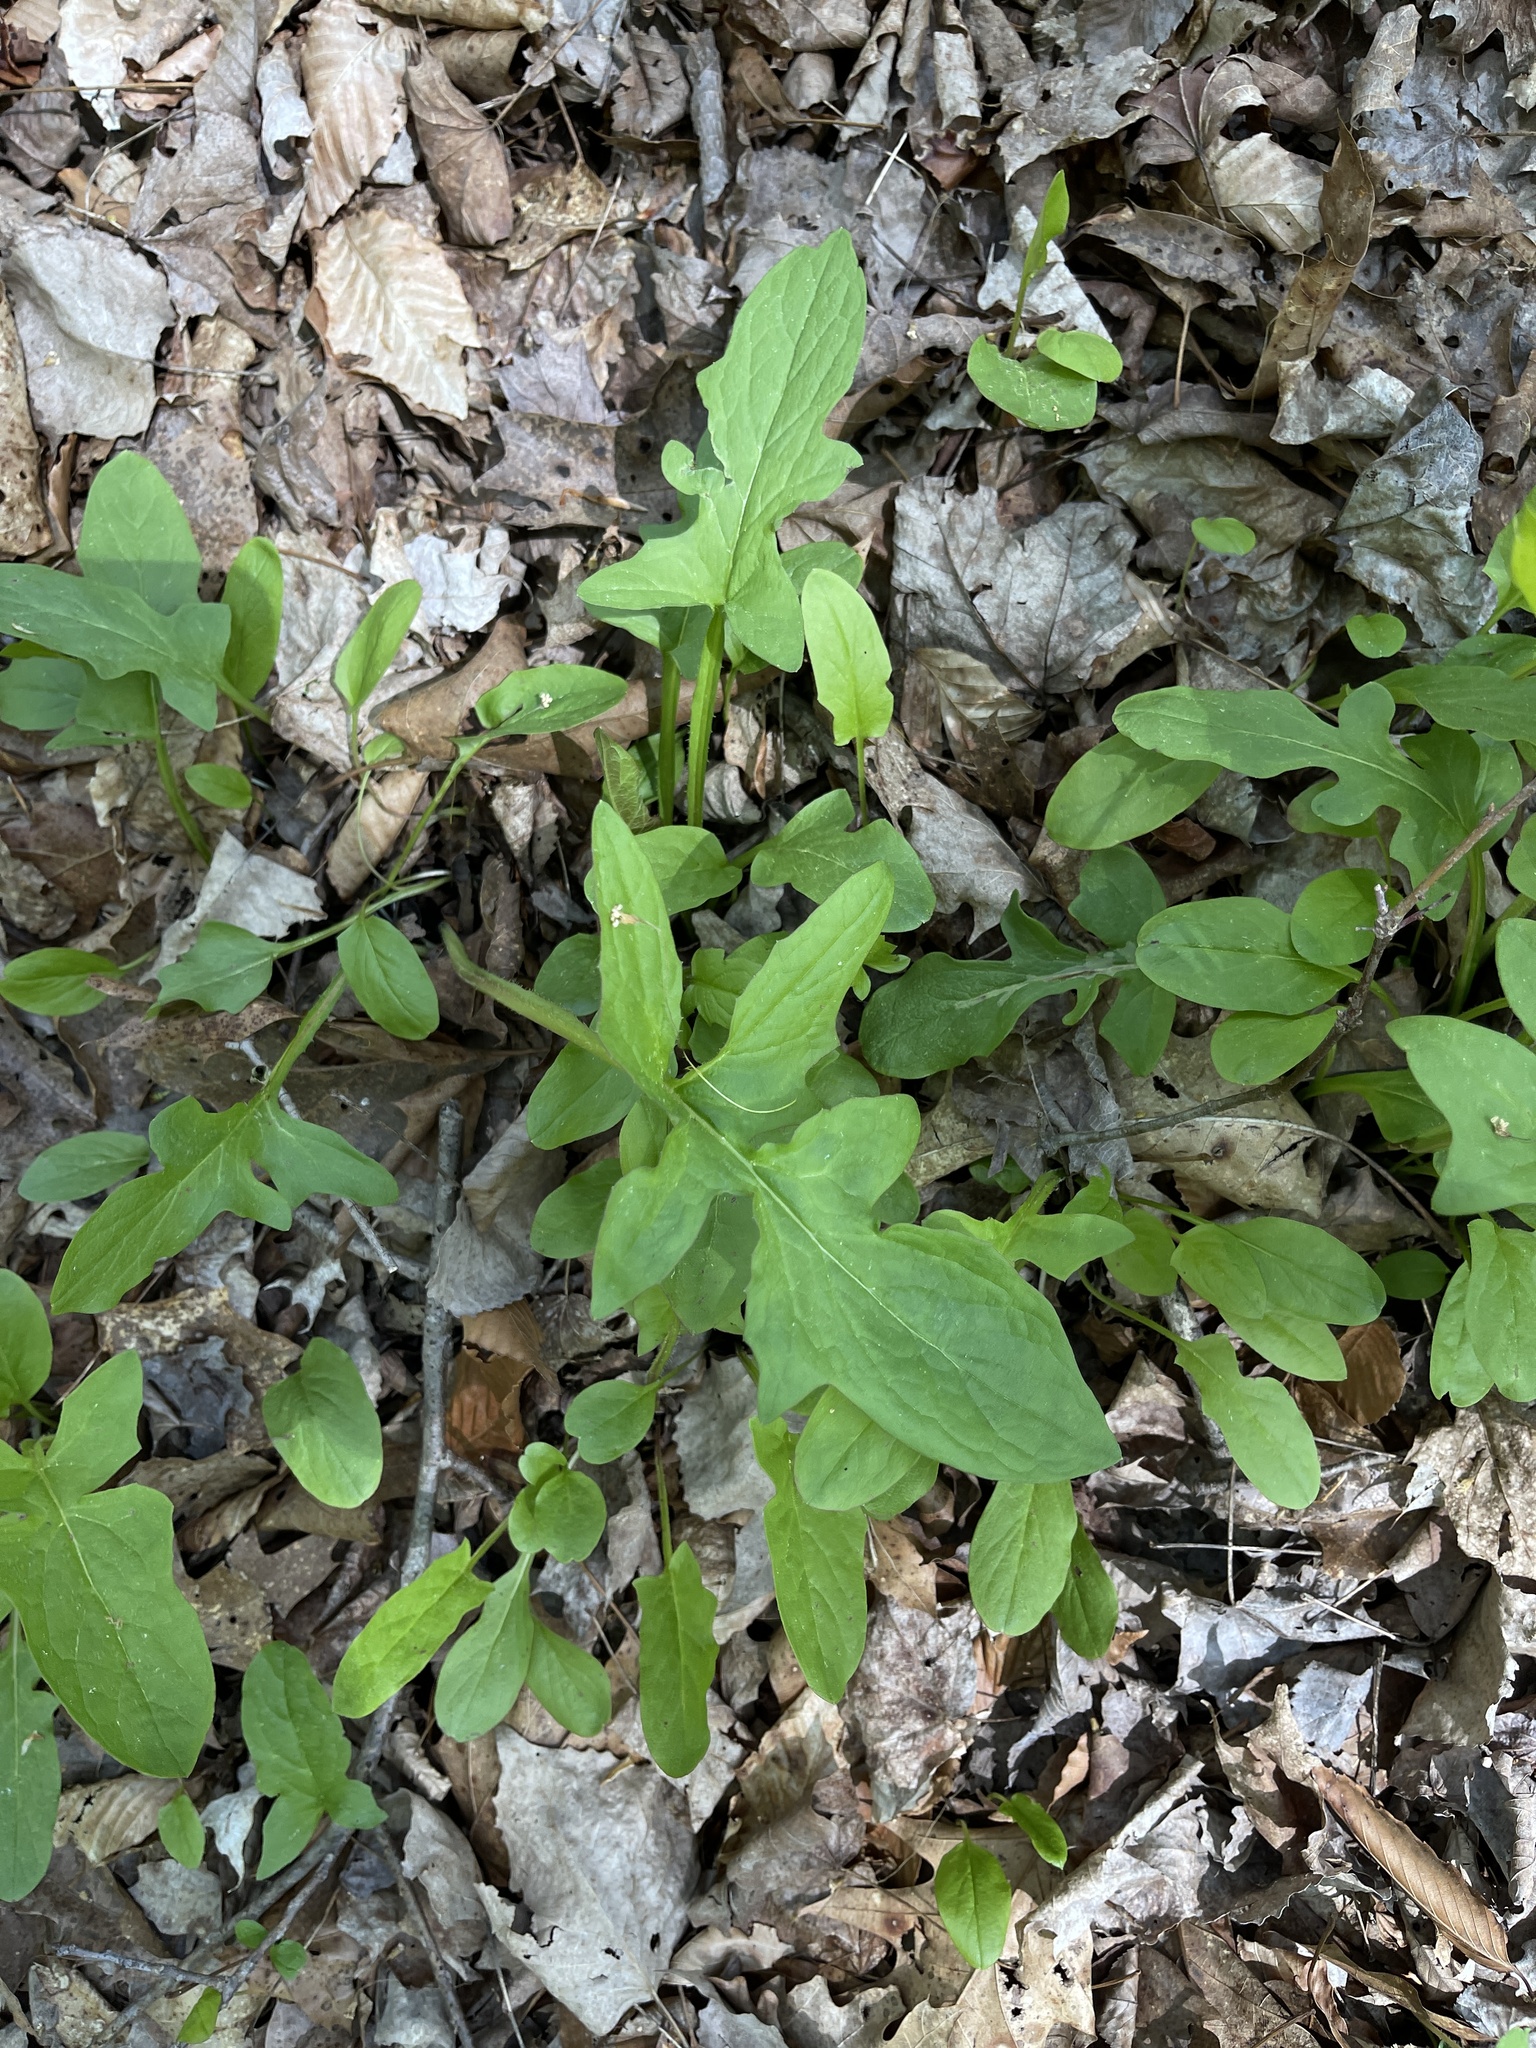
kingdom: Plantae
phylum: Tracheophyta
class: Magnoliopsida
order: Asterales
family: Asteraceae
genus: Nabalus
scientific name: Nabalus crepidineus
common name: Nodding rattlesnakeroot
